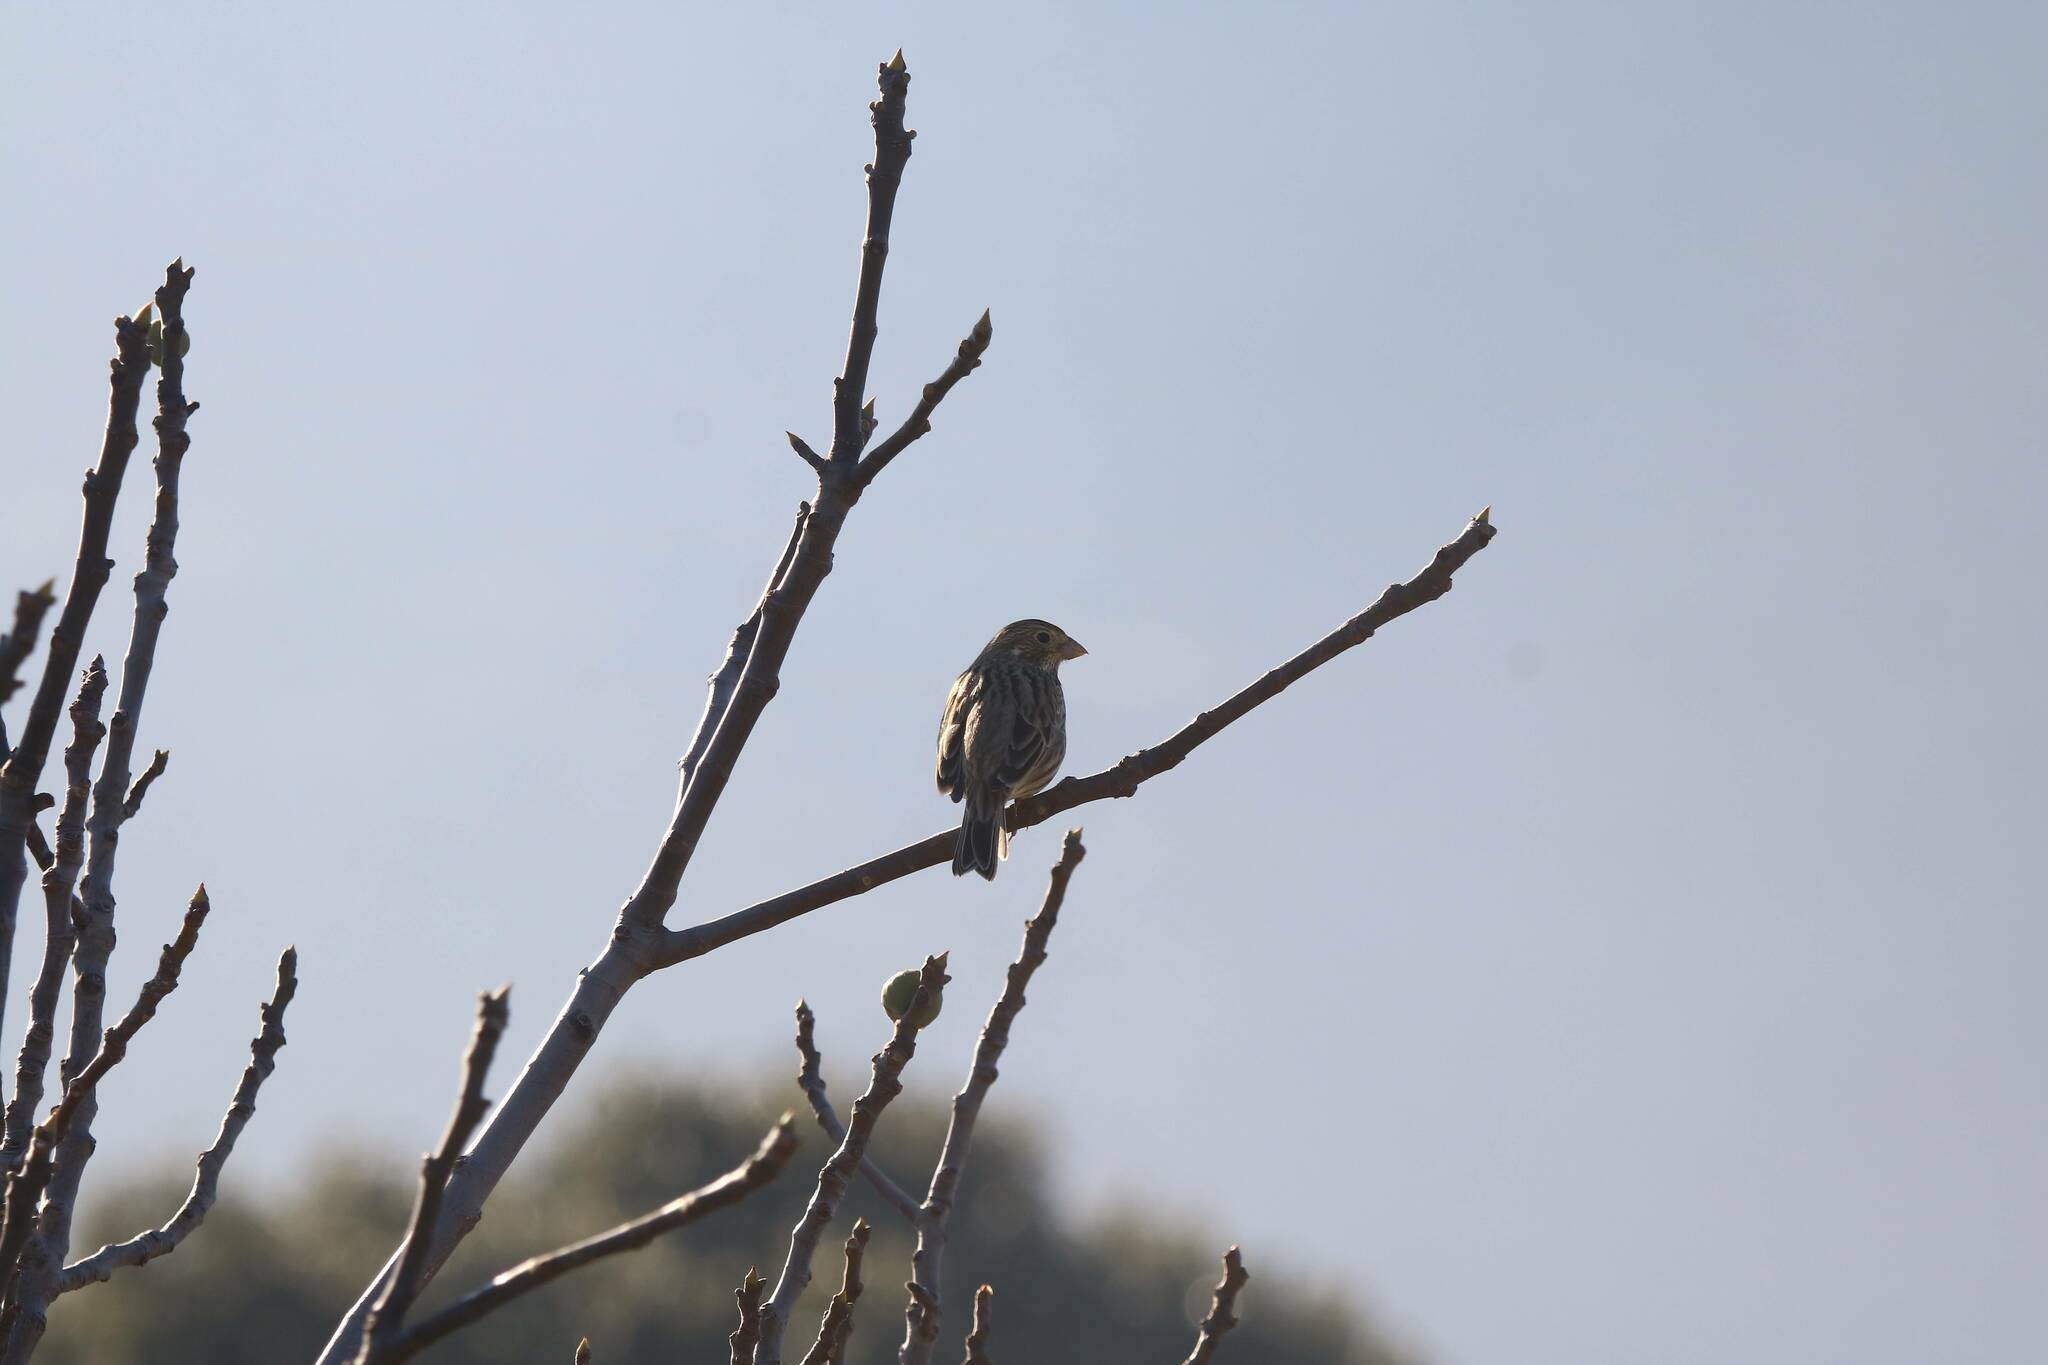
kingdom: Animalia
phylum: Chordata
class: Aves
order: Passeriformes
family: Emberizidae
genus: Emberiza
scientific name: Emberiza calandra
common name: Corn bunting
